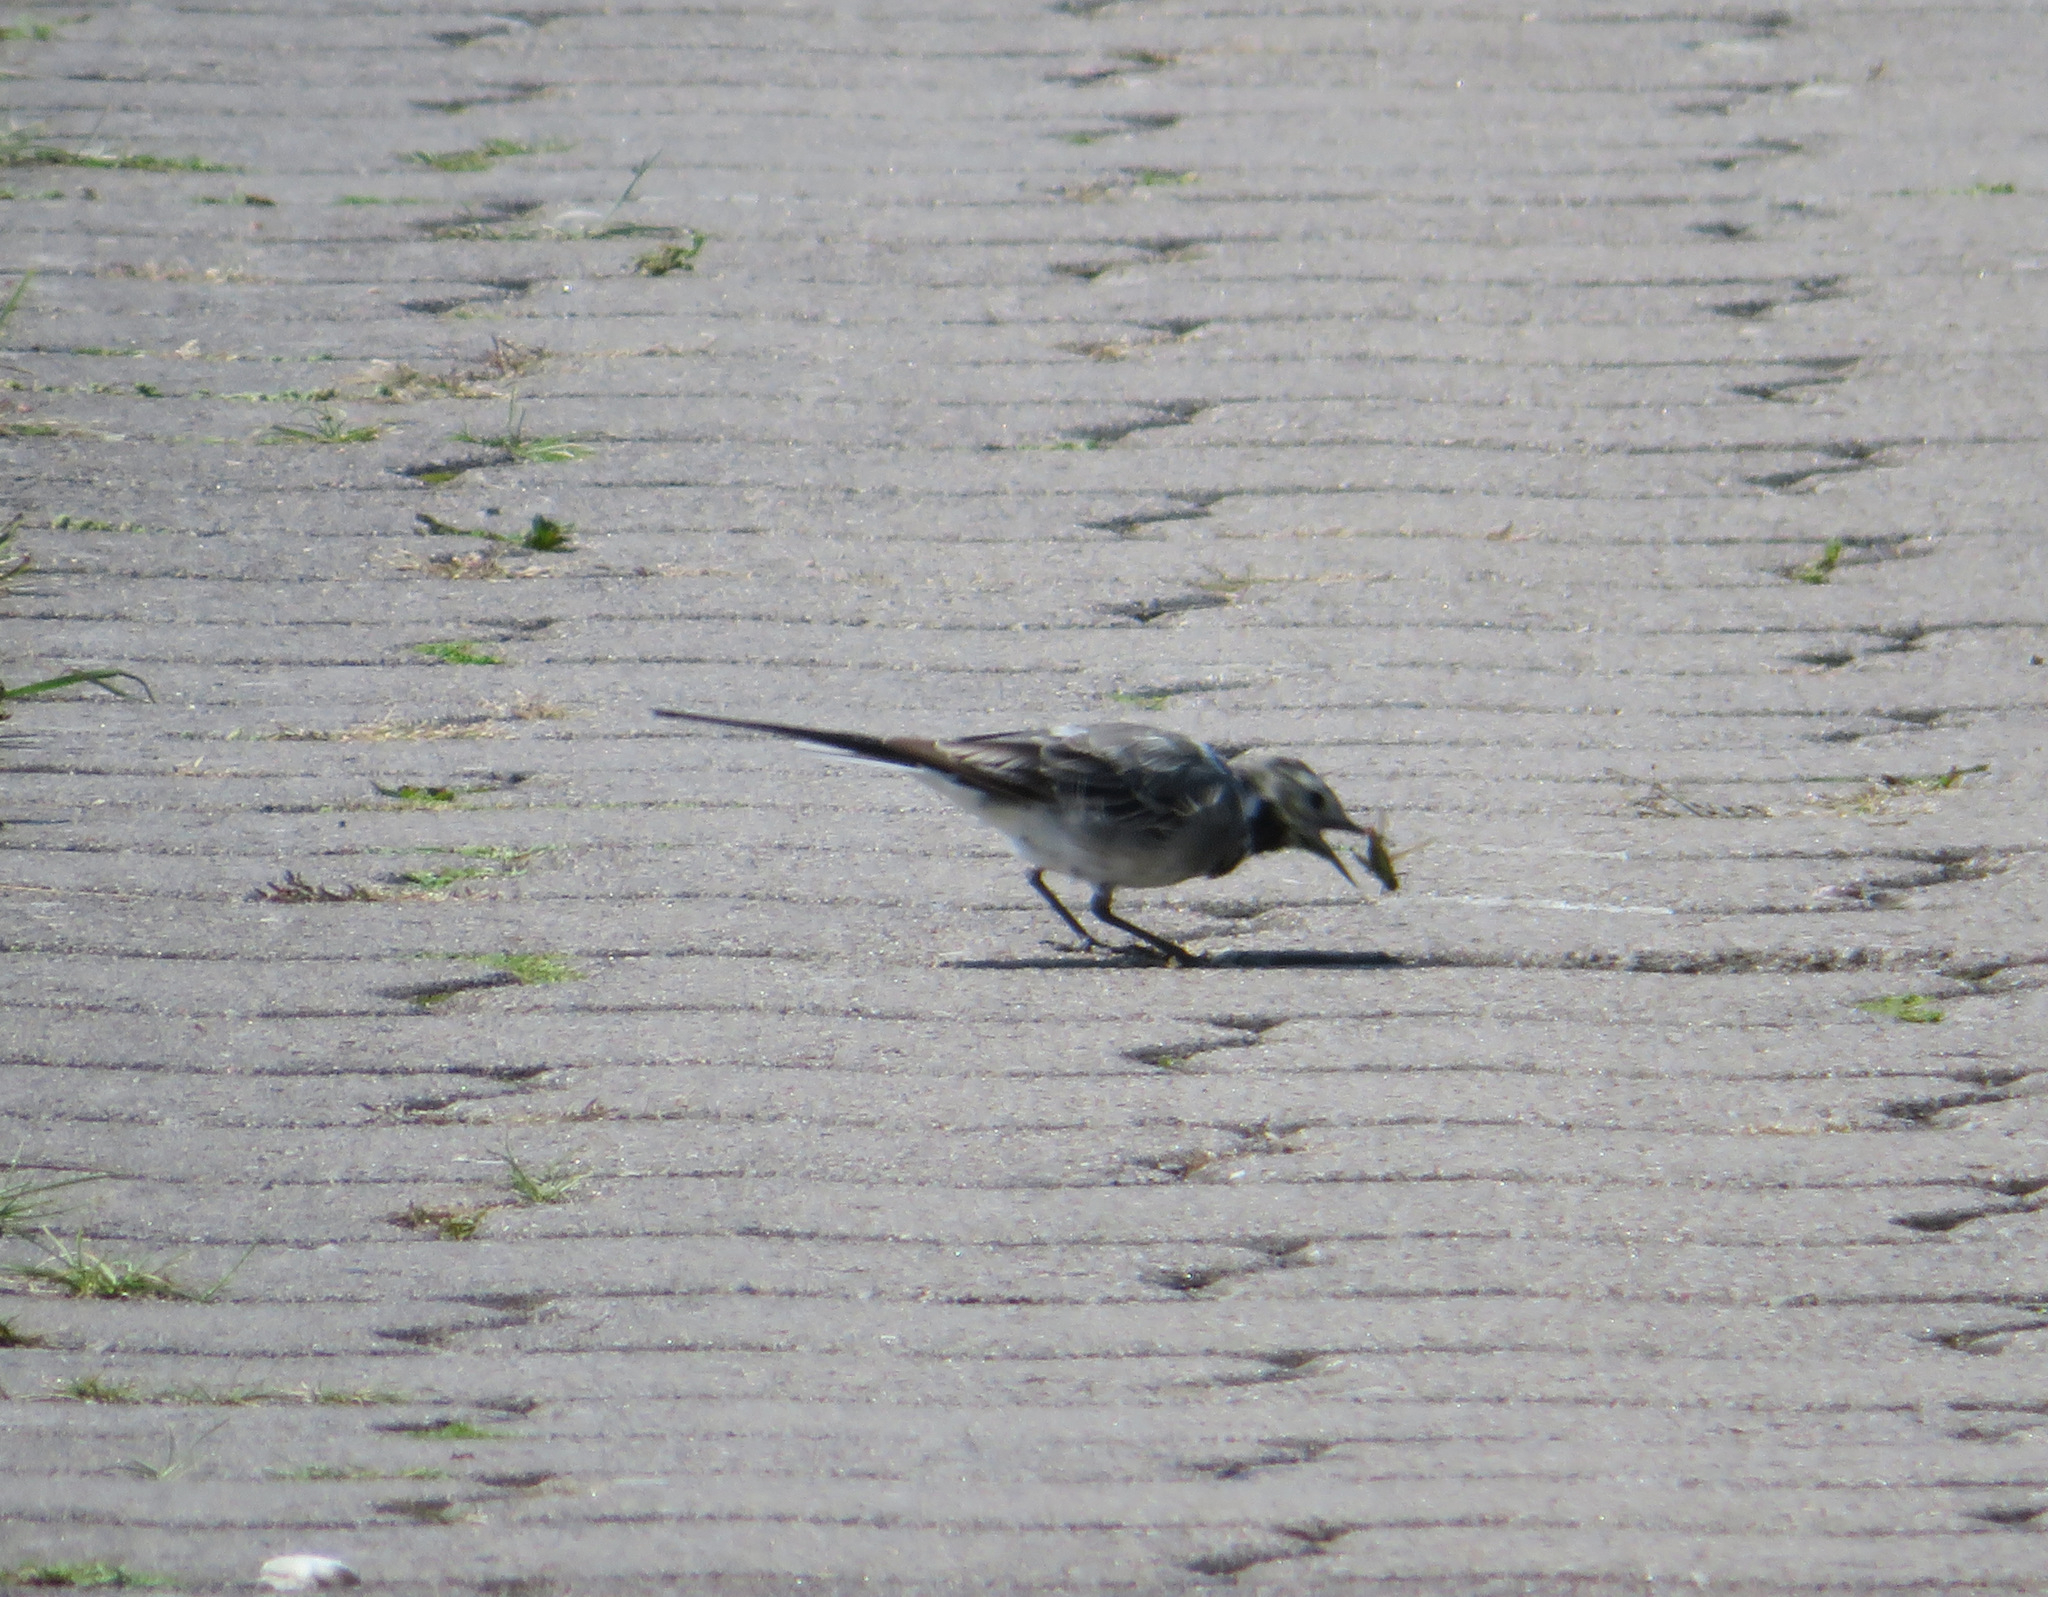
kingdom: Animalia
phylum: Chordata
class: Aves
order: Passeriformes
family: Motacillidae
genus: Motacilla
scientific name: Motacilla alba
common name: White wagtail
